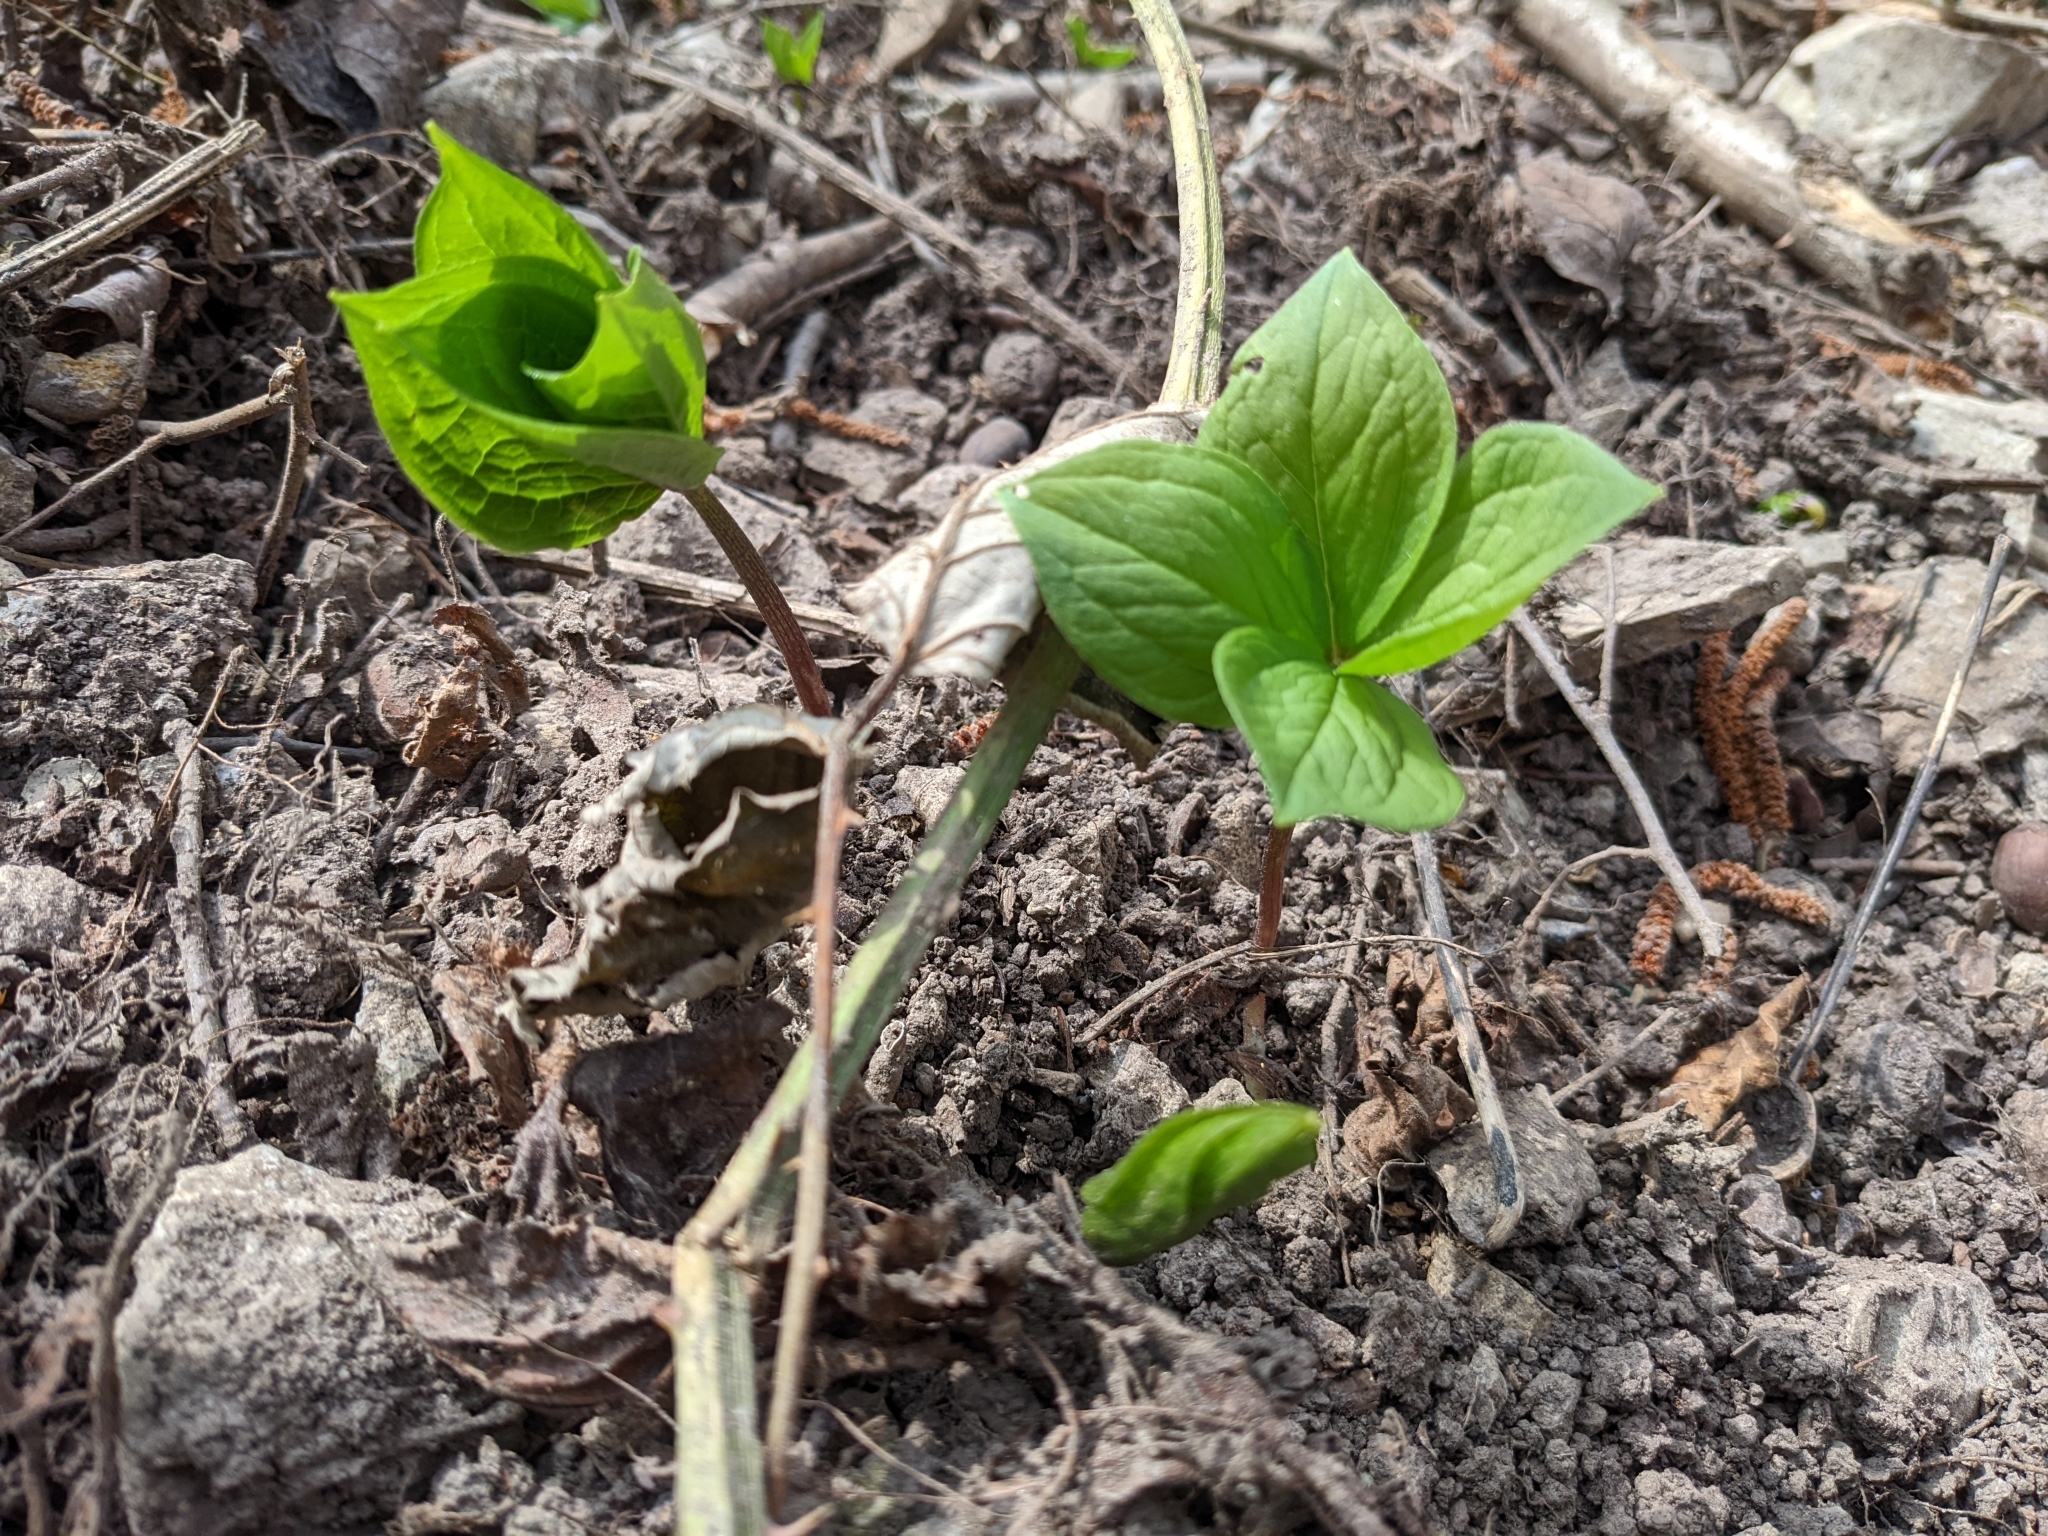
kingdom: Plantae
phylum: Tracheophyta
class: Liliopsida
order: Liliales
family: Melanthiaceae
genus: Paris
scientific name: Paris quadrifolia
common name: Herb-paris
